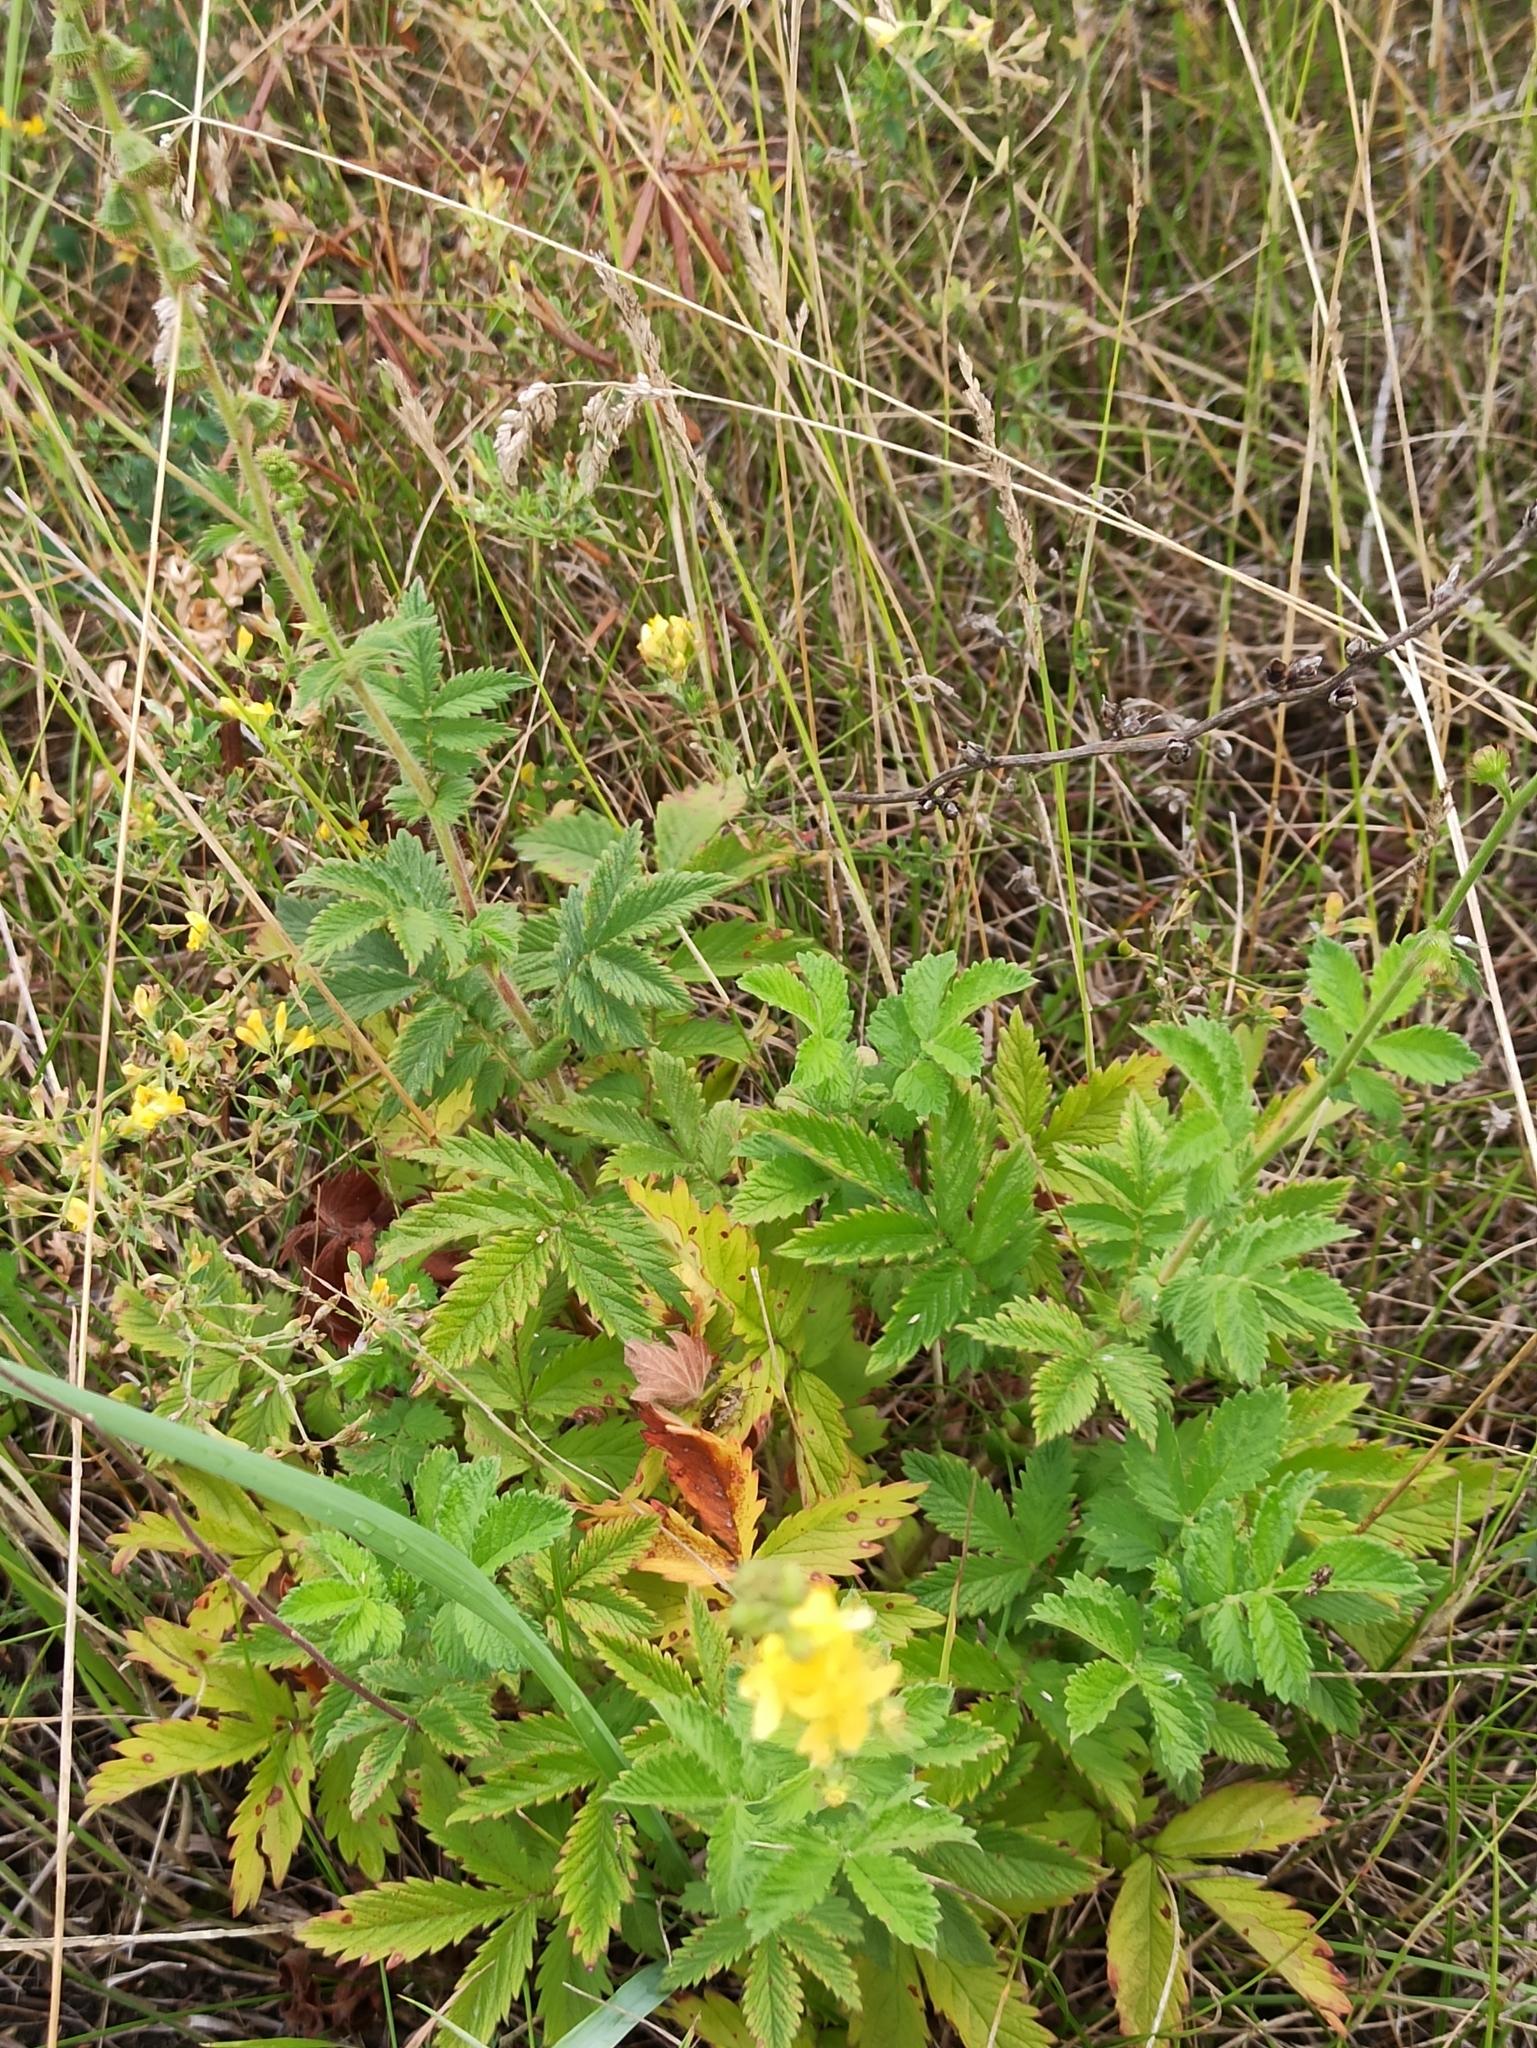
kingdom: Plantae
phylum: Tracheophyta
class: Magnoliopsida
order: Rosales
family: Rosaceae
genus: Agrimonia
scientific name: Agrimonia eupatoria
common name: Agrimony
